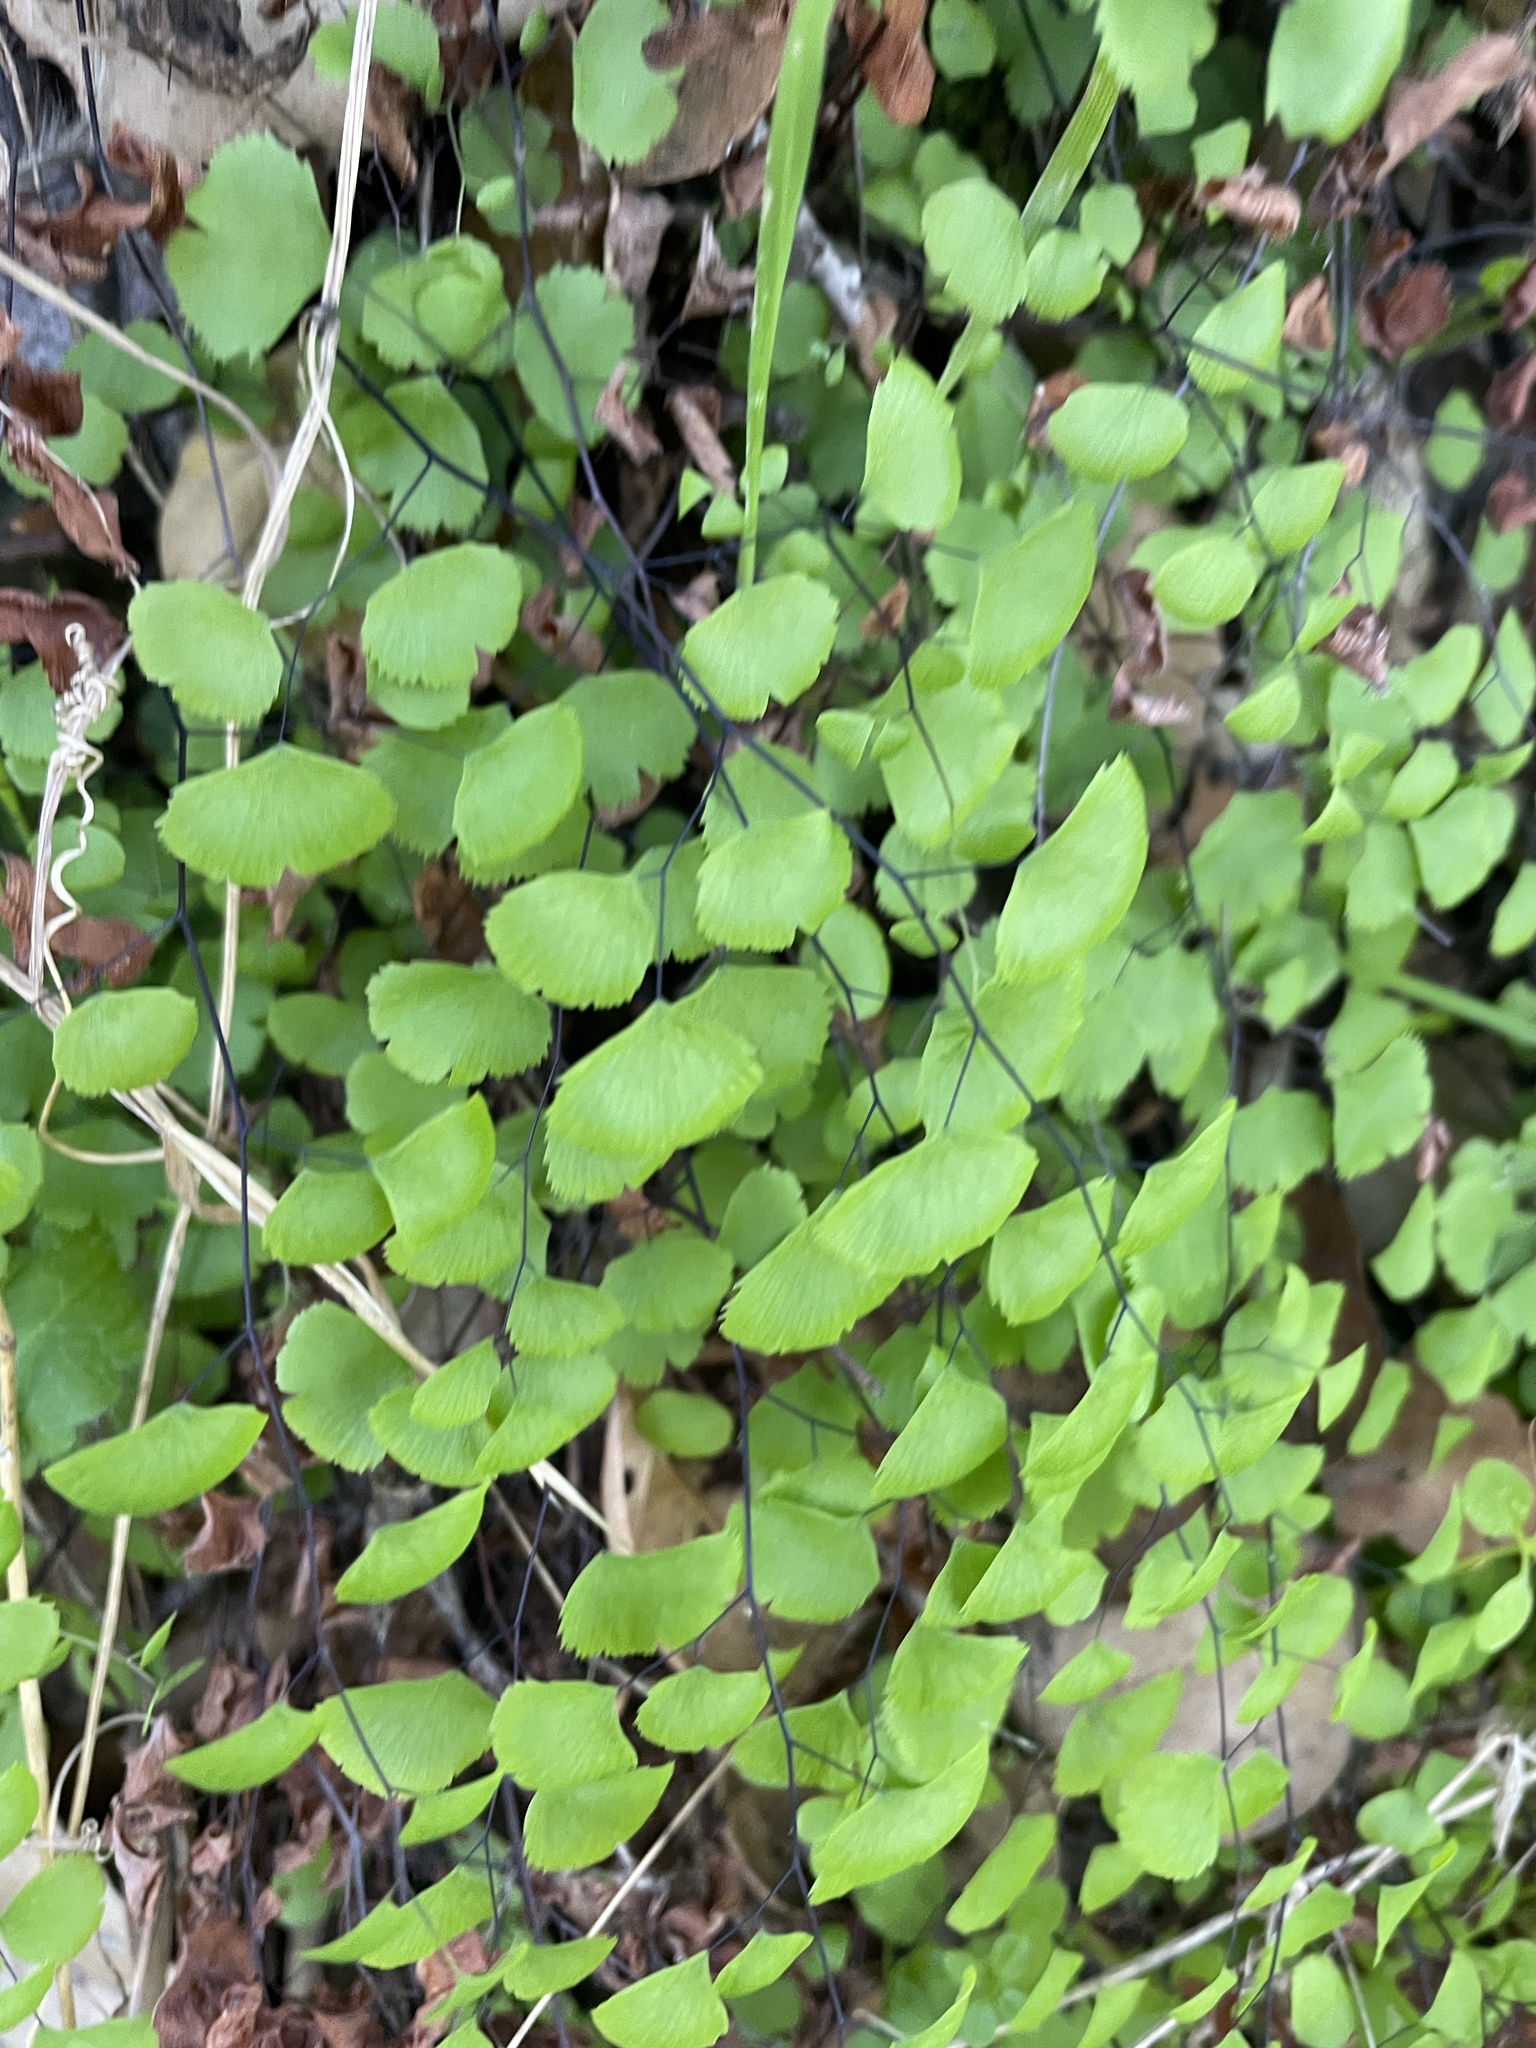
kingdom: Plantae
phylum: Tracheophyta
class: Polypodiopsida
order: Polypodiales
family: Pteridaceae
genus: Adiantum
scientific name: Adiantum jordanii
